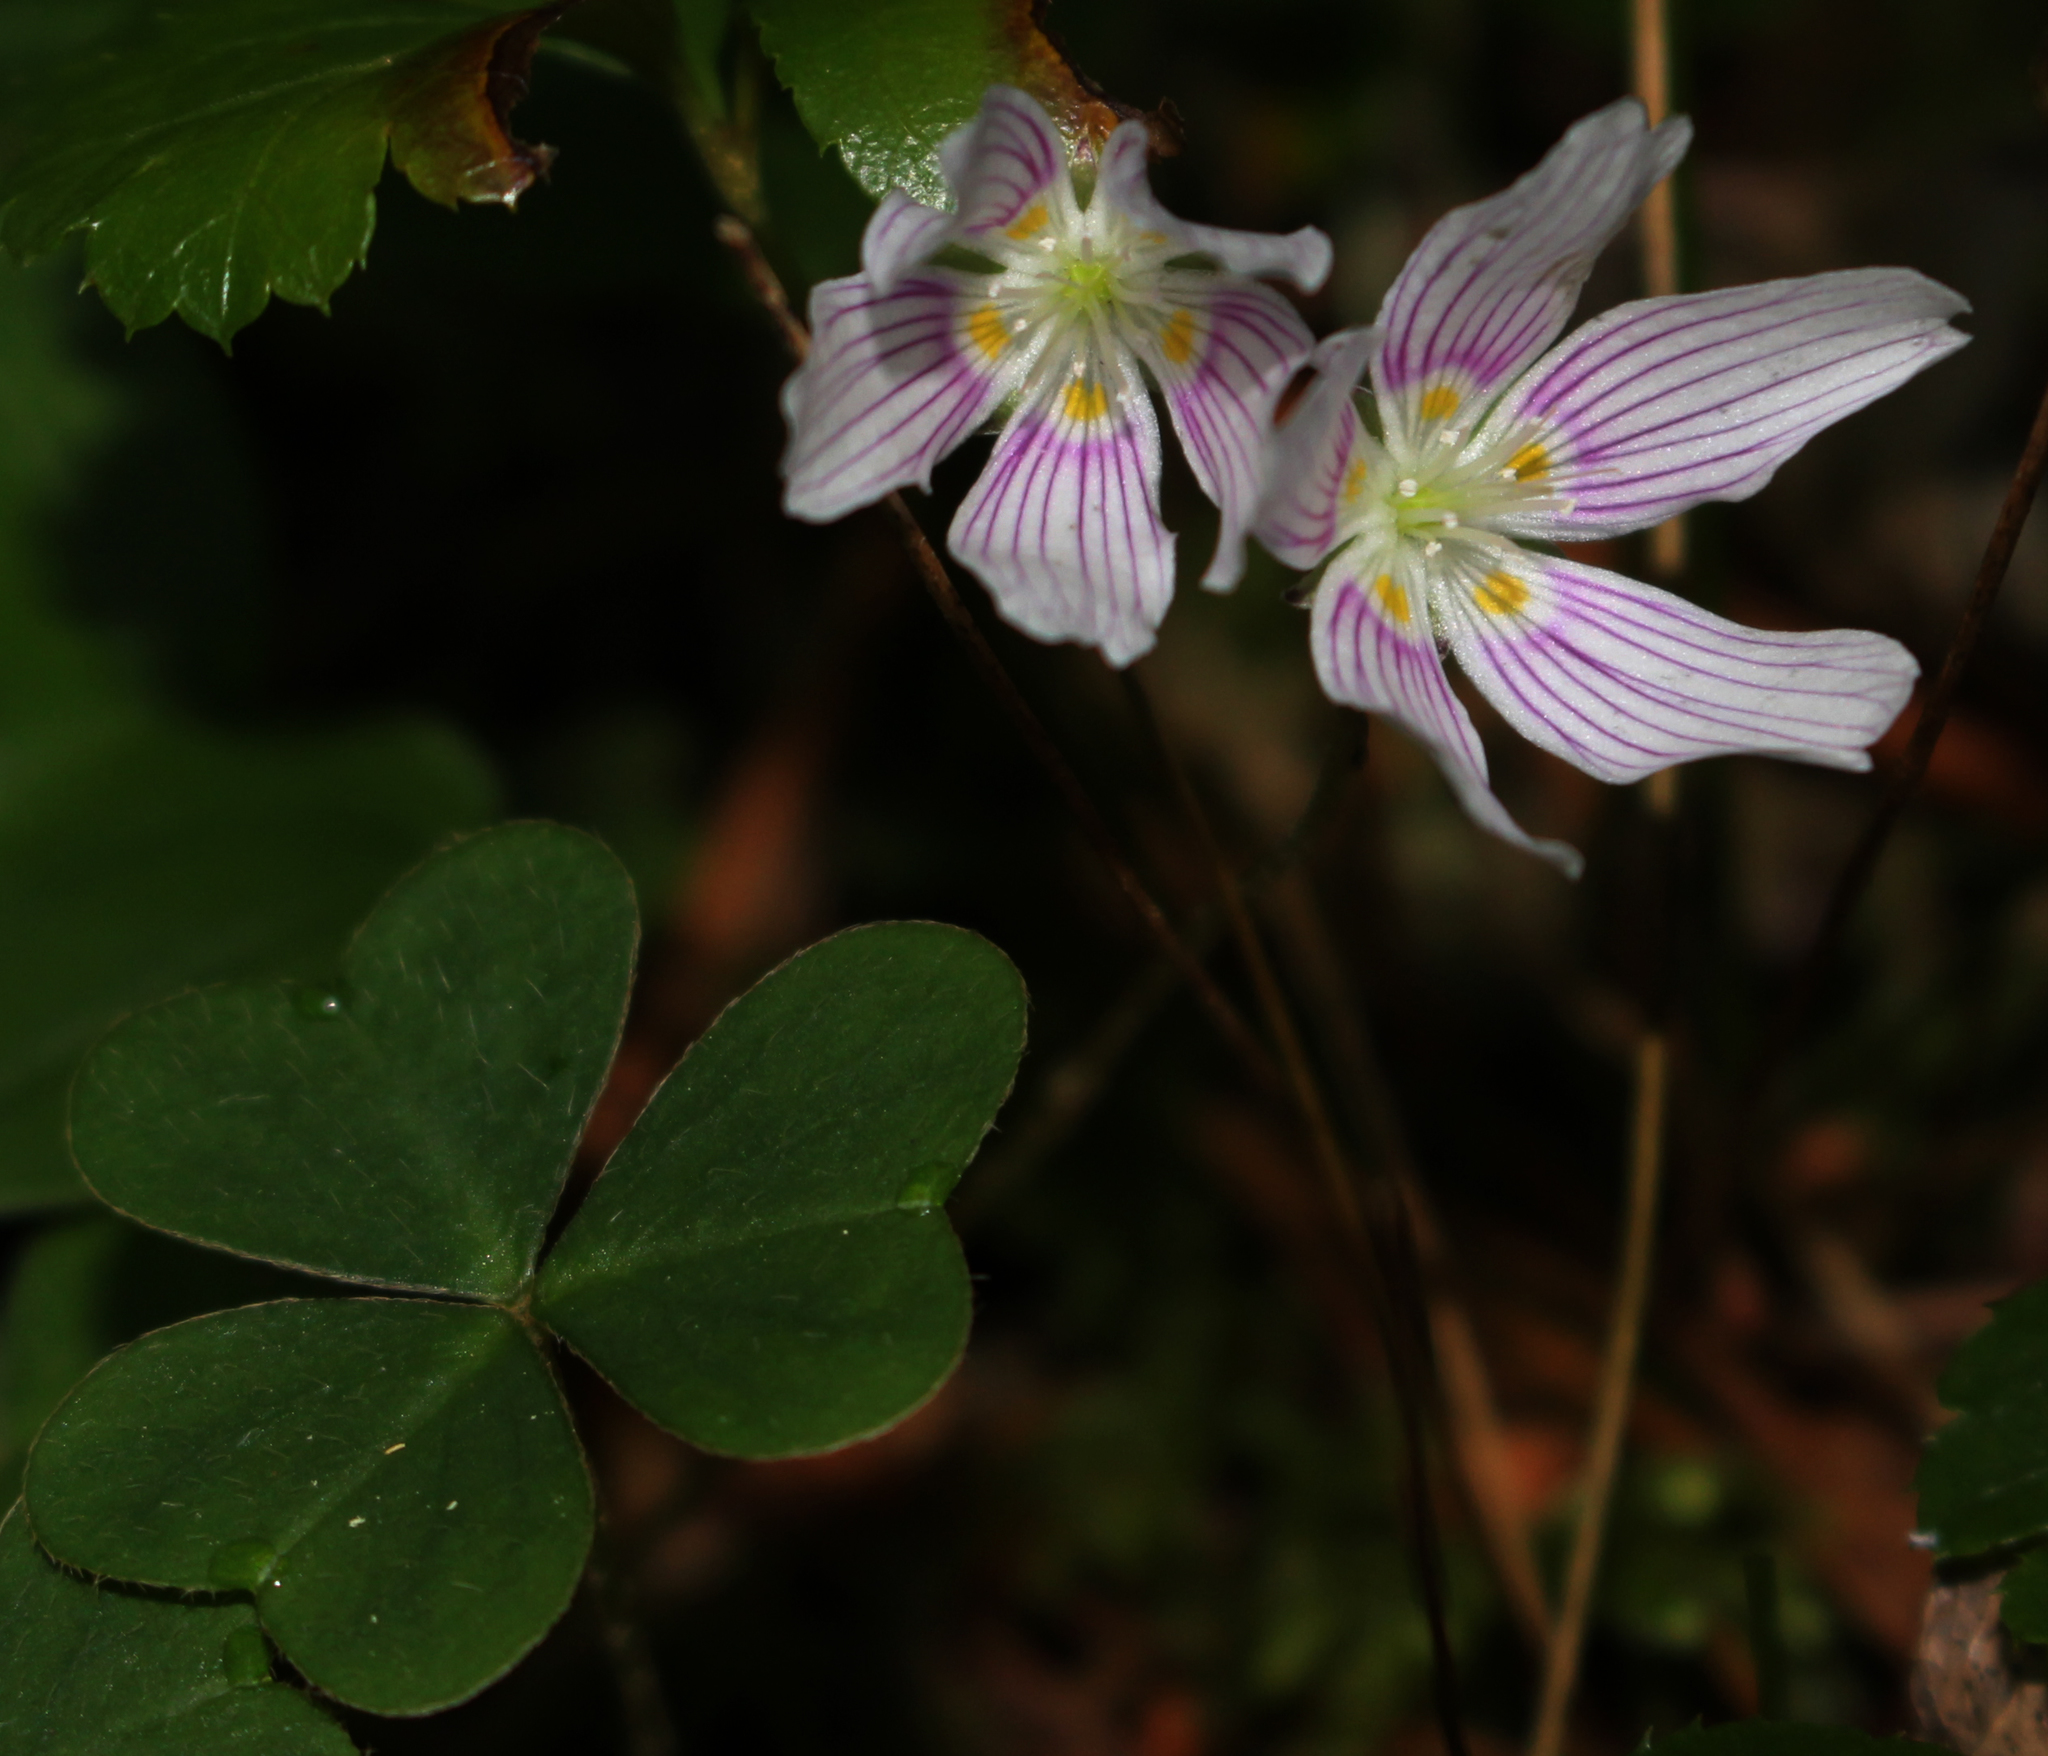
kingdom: Plantae
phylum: Tracheophyta
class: Magnoliopsida
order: Oxalidales
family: Oxalidaceae
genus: Oxalis
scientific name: Oxalis montana
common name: American wood-sorrel
